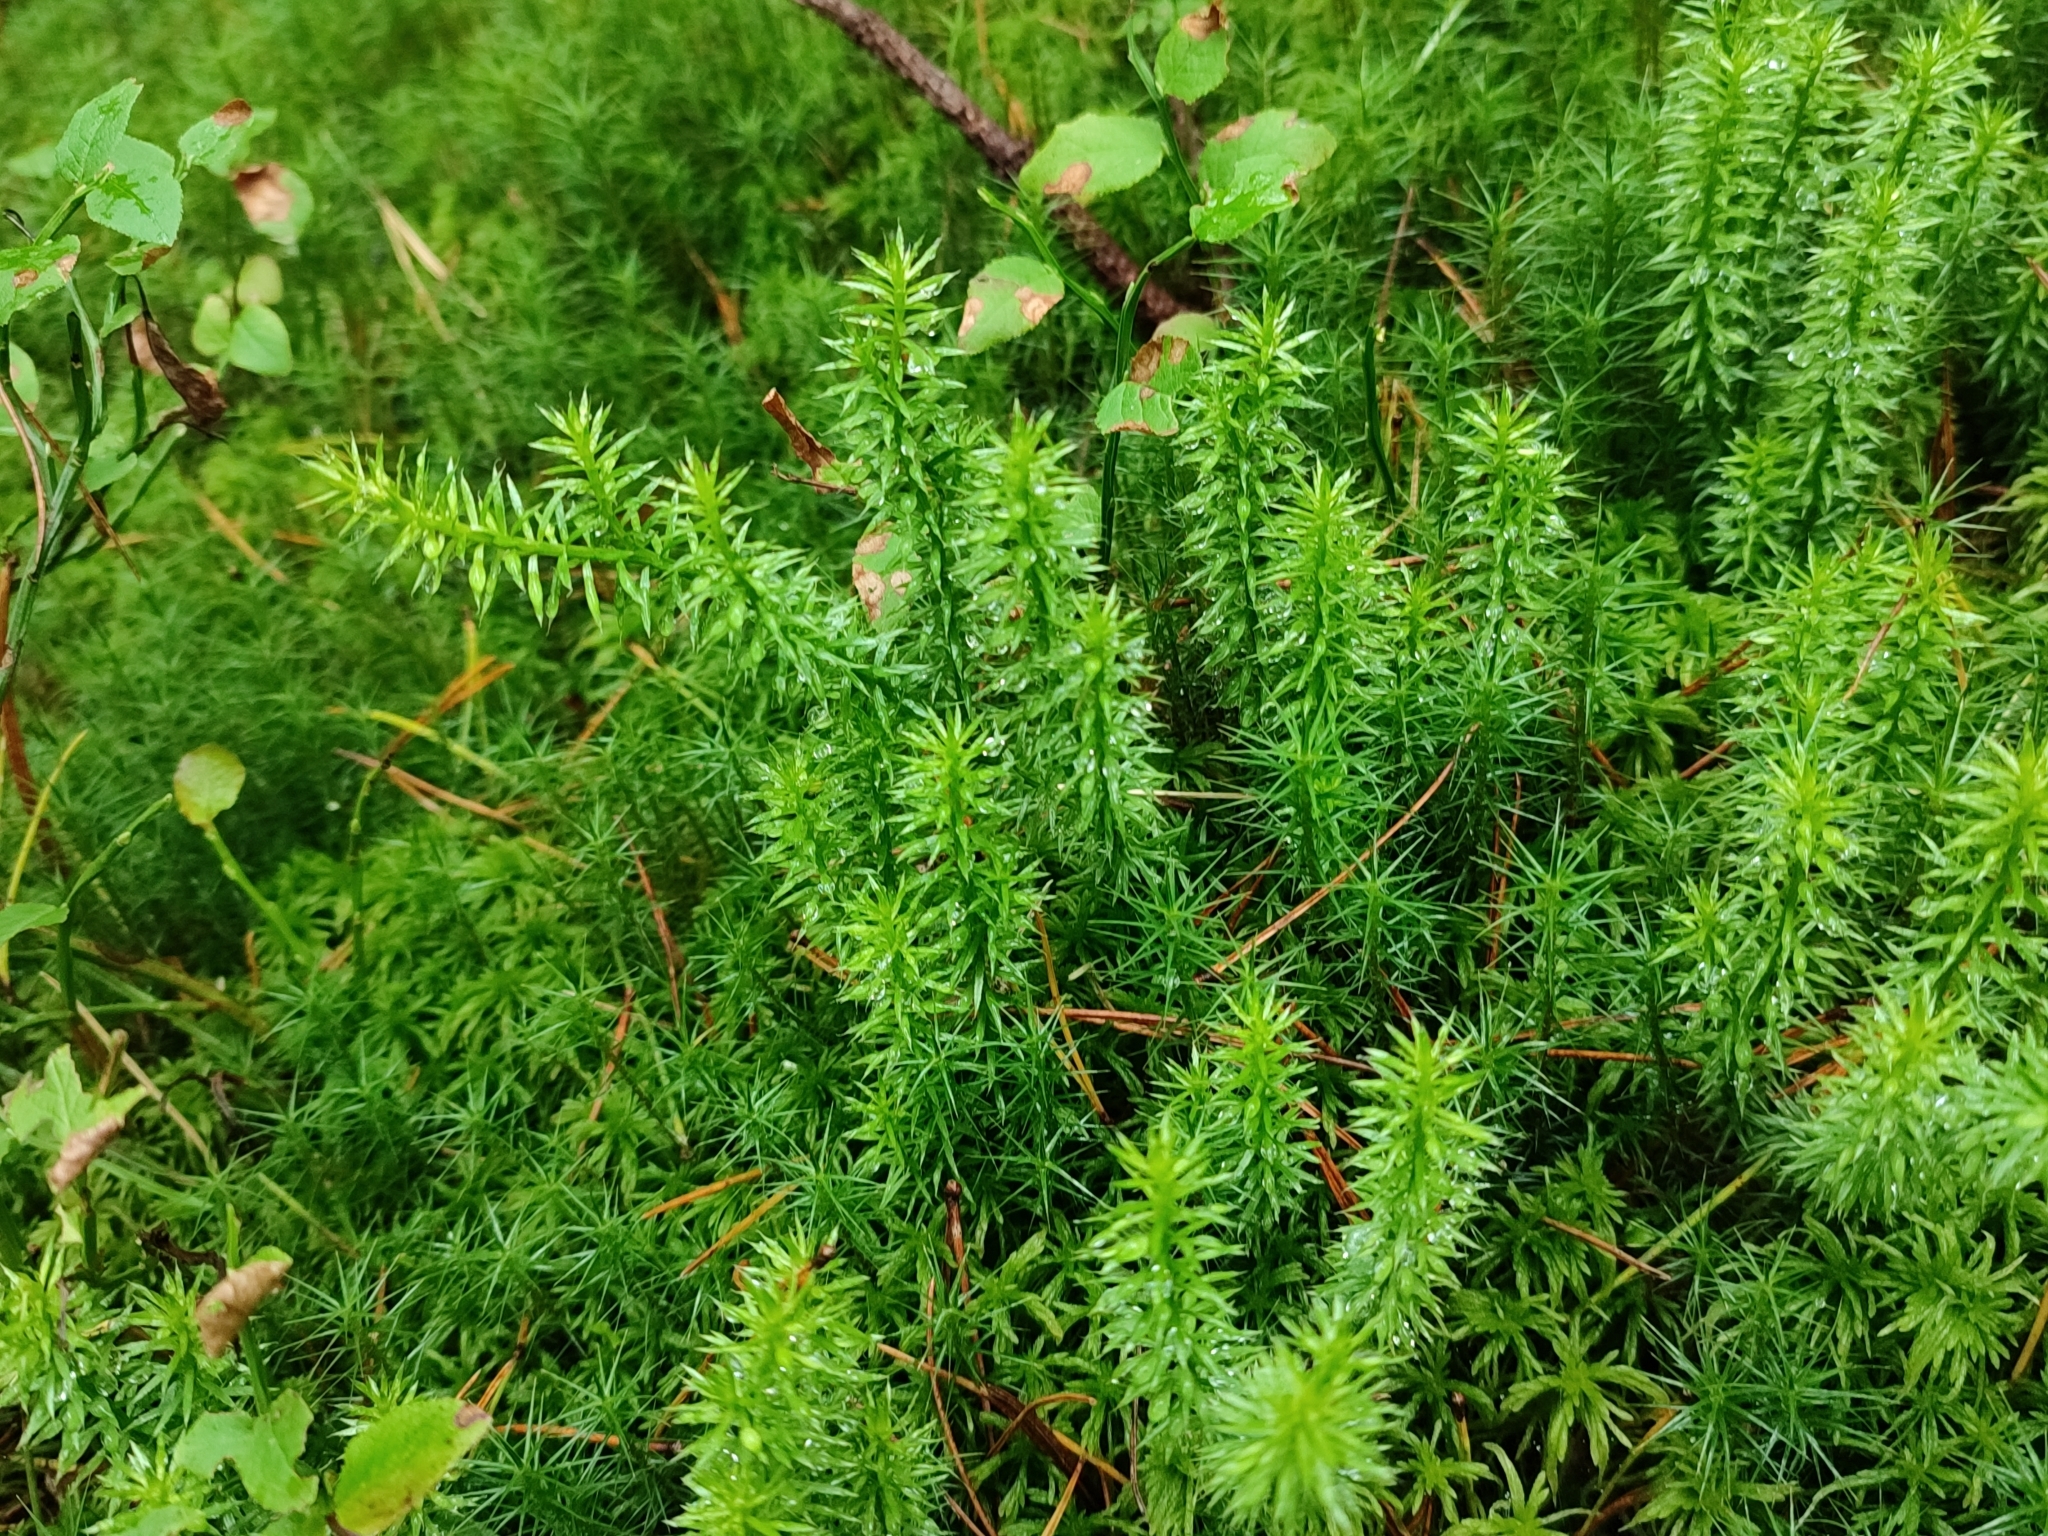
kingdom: Plantae
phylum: Tracheophyta
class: Lycopodiopsida
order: Lycopodiales
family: Lycopodiaceae
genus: Spinulum
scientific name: Spinulum annotinum
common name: Interrupted club-moss
